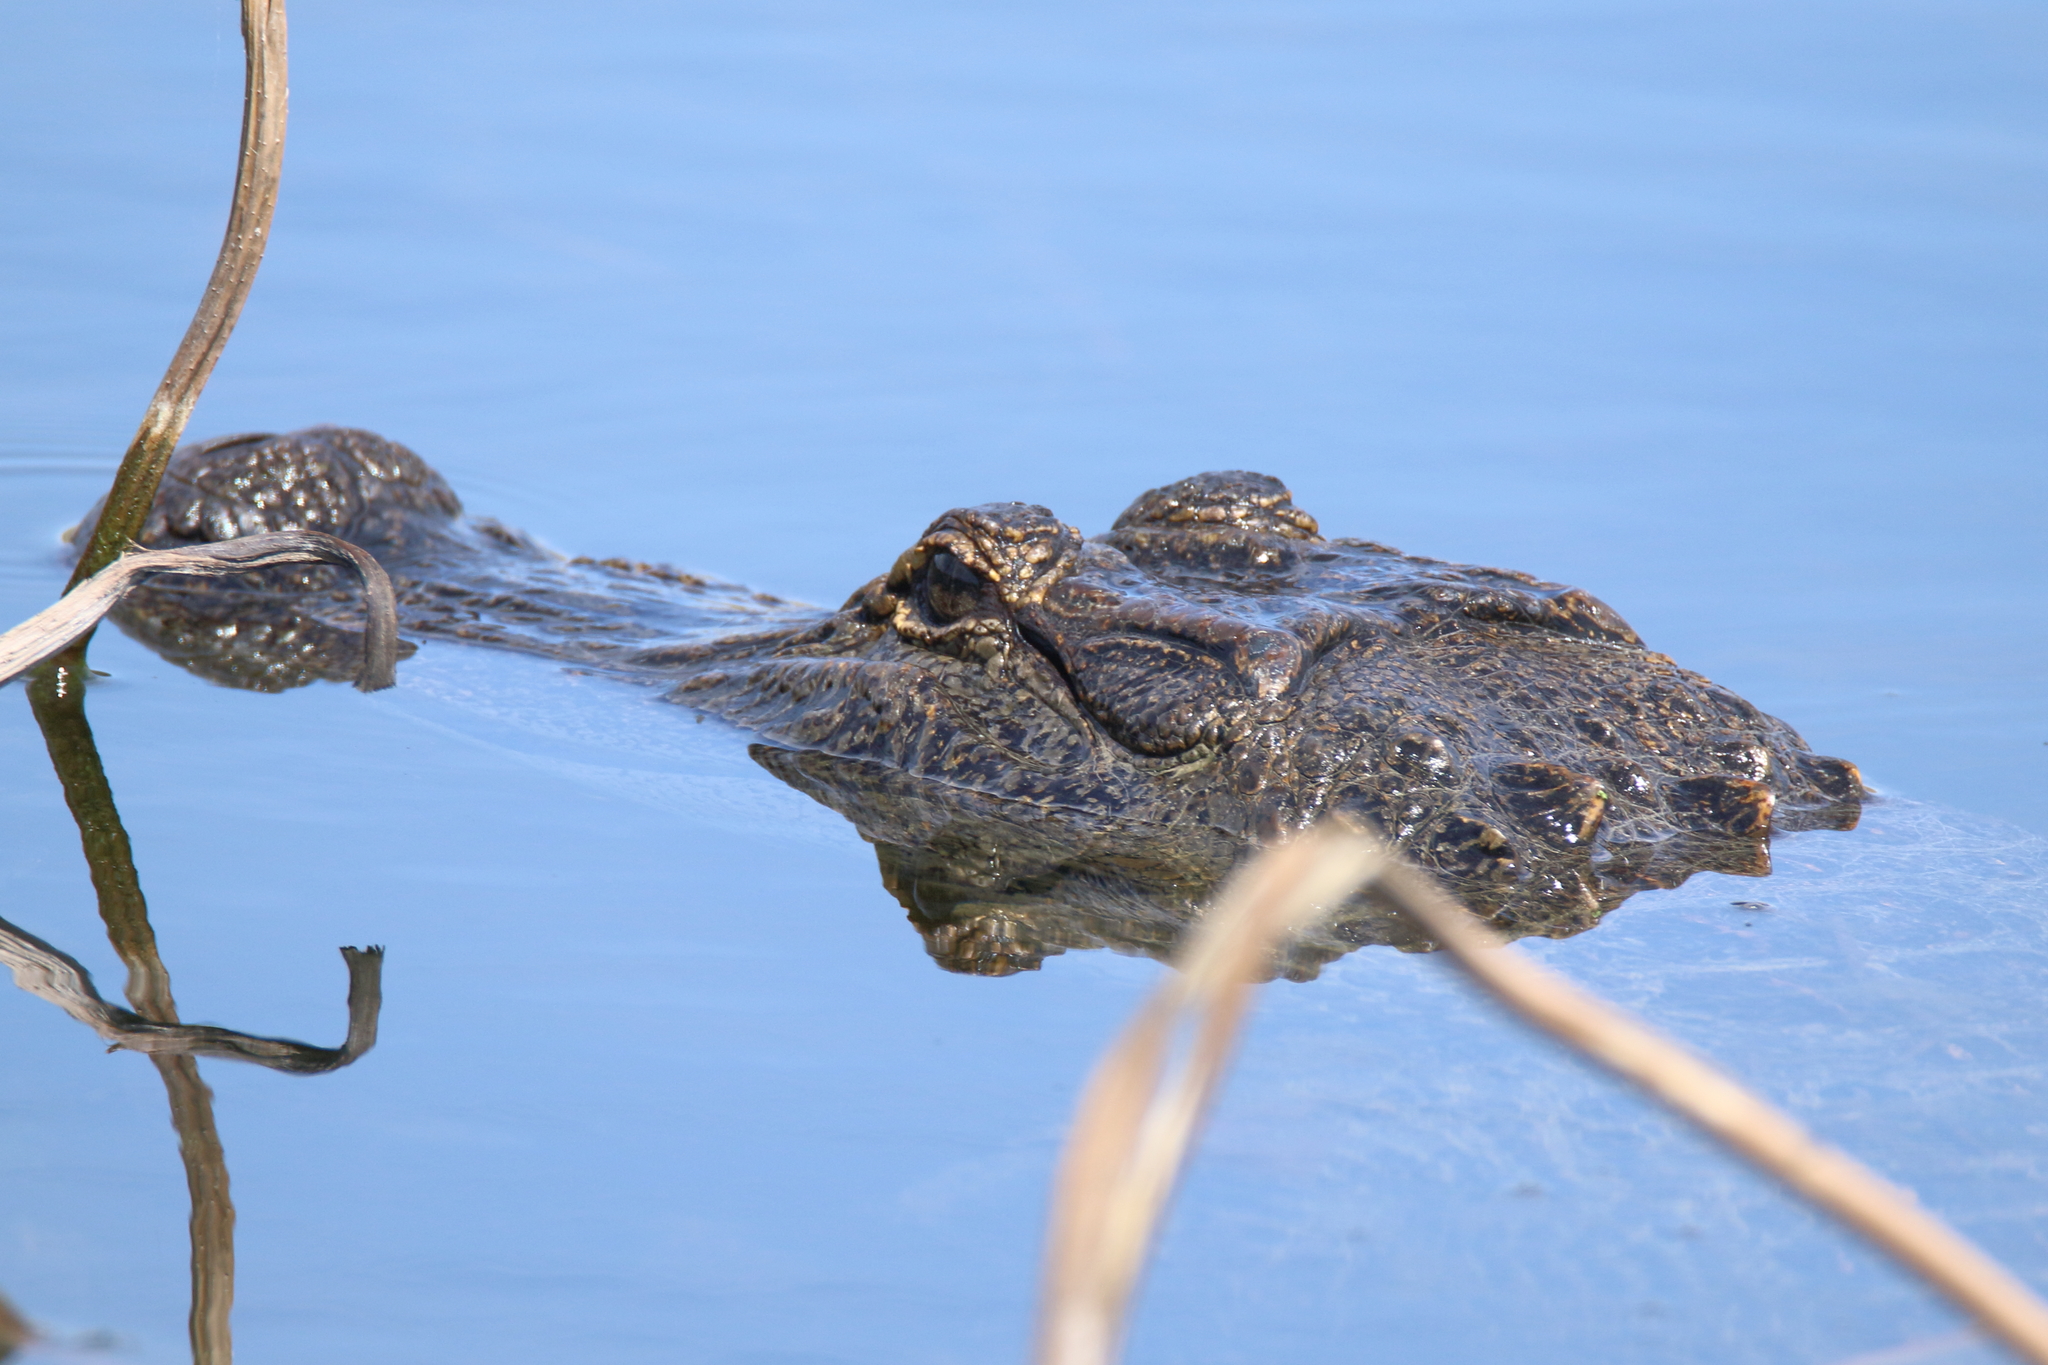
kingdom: Animalia
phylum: Chordata
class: Crocodylia
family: Alligatoridae
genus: Alligator
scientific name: Alligator mississippiensis
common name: American alligator
